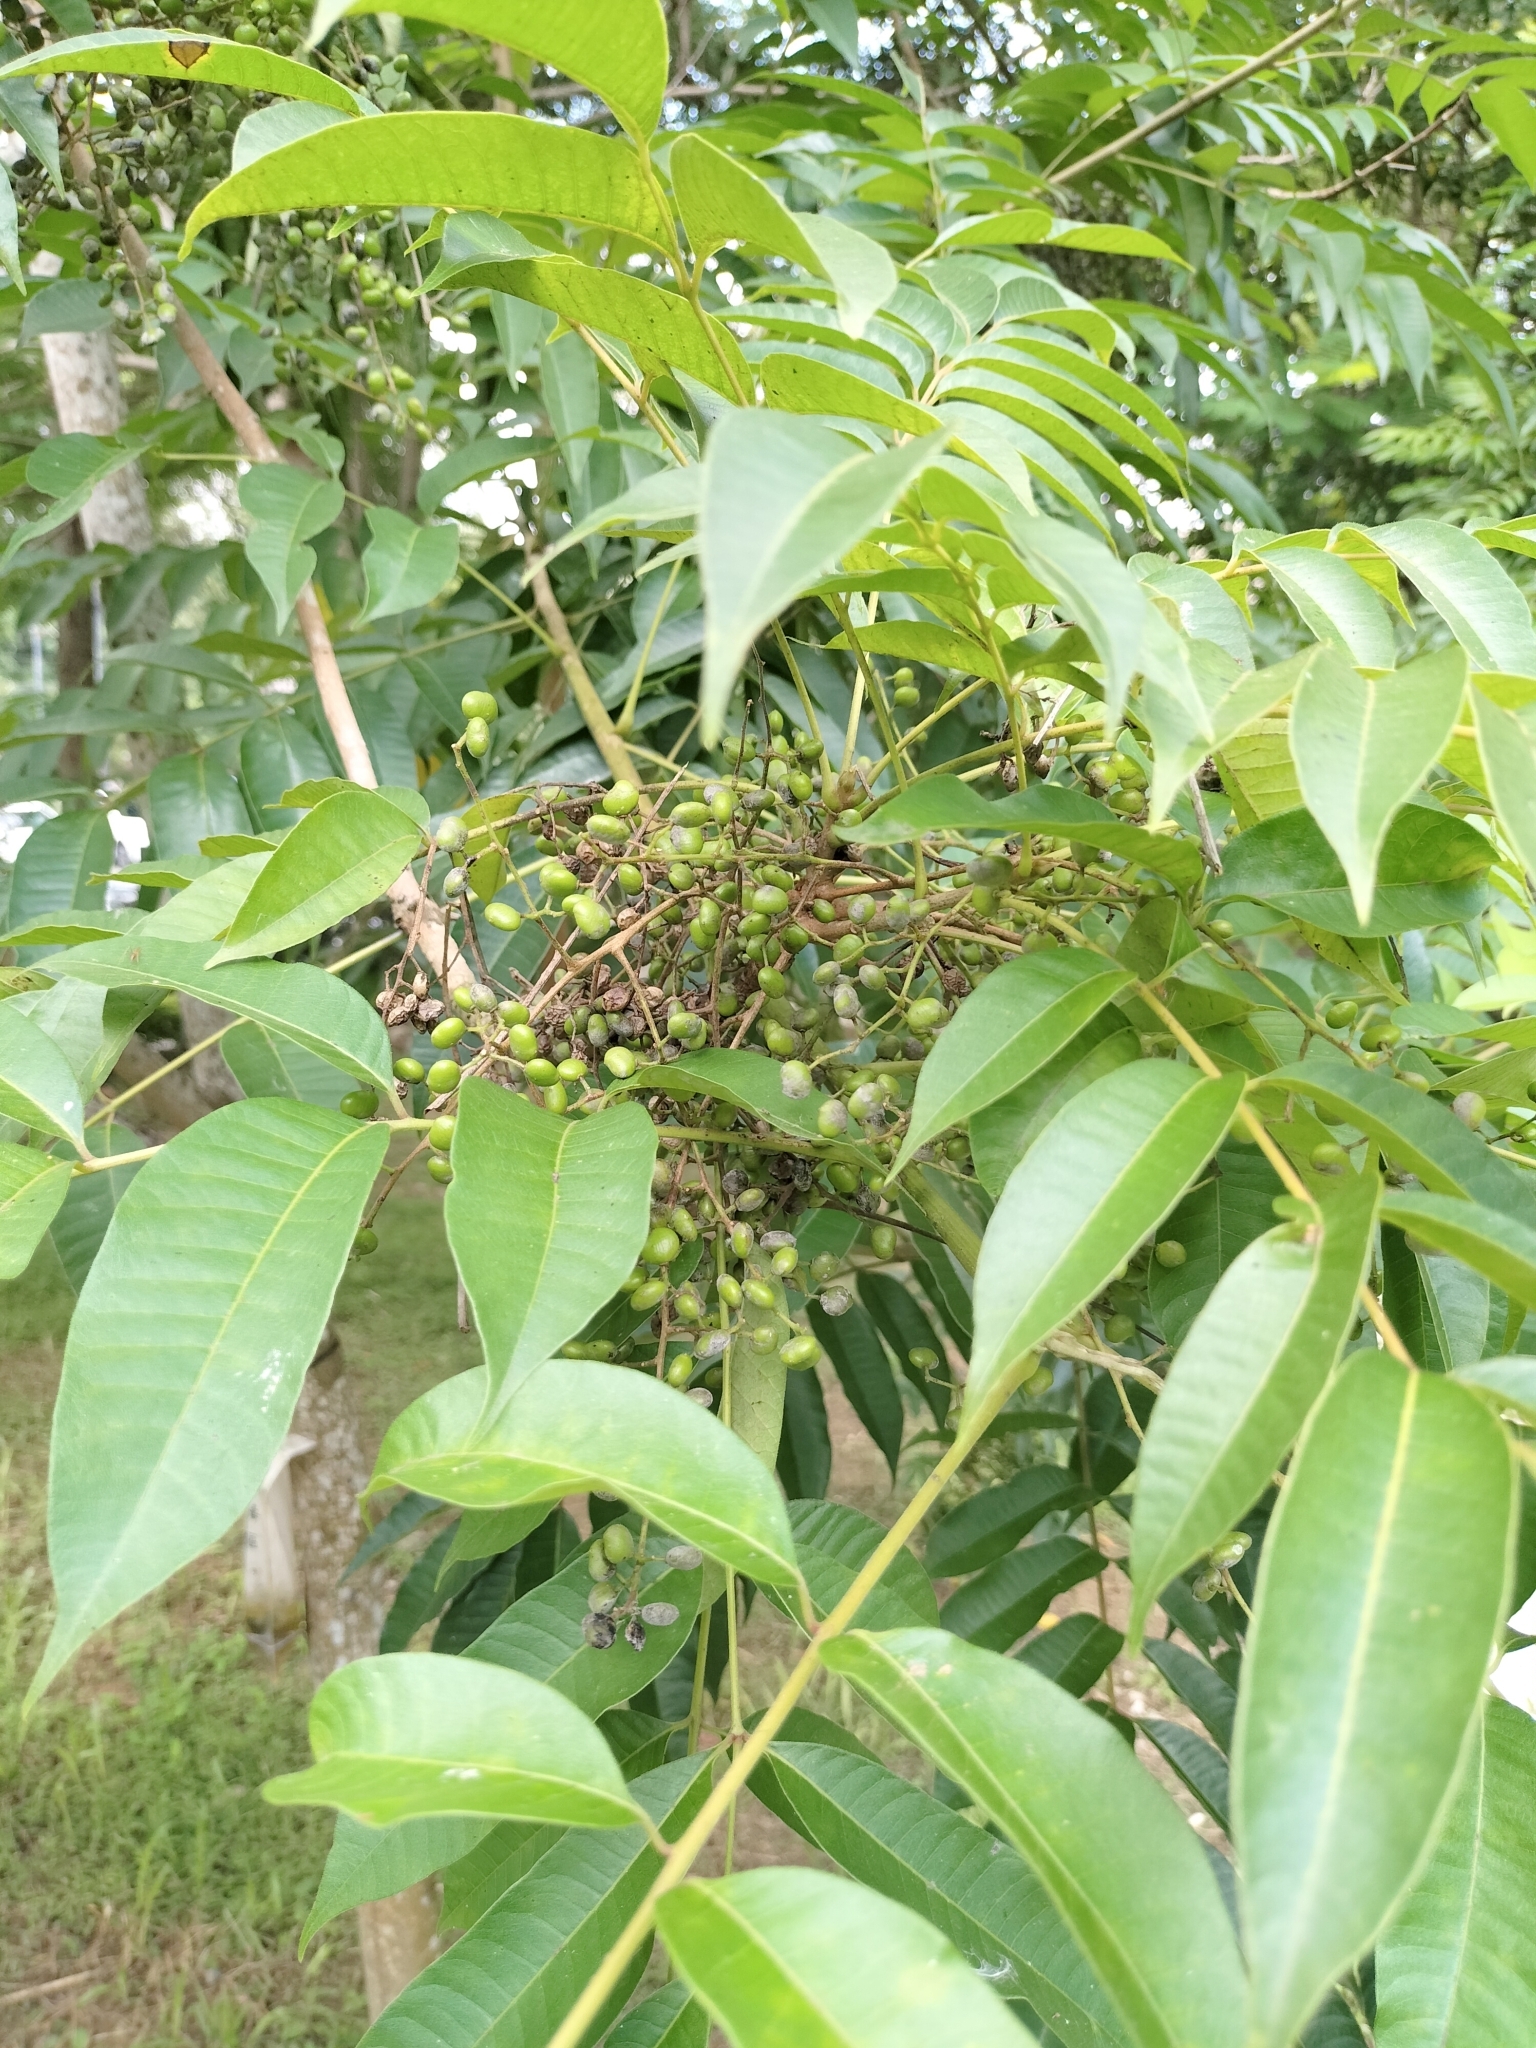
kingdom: Plantae
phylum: Tracheophyta
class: Magnoliopsida
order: Sapindales
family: Anacardiaceae
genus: Toxicodendron
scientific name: Toxicodendron sylvestre
